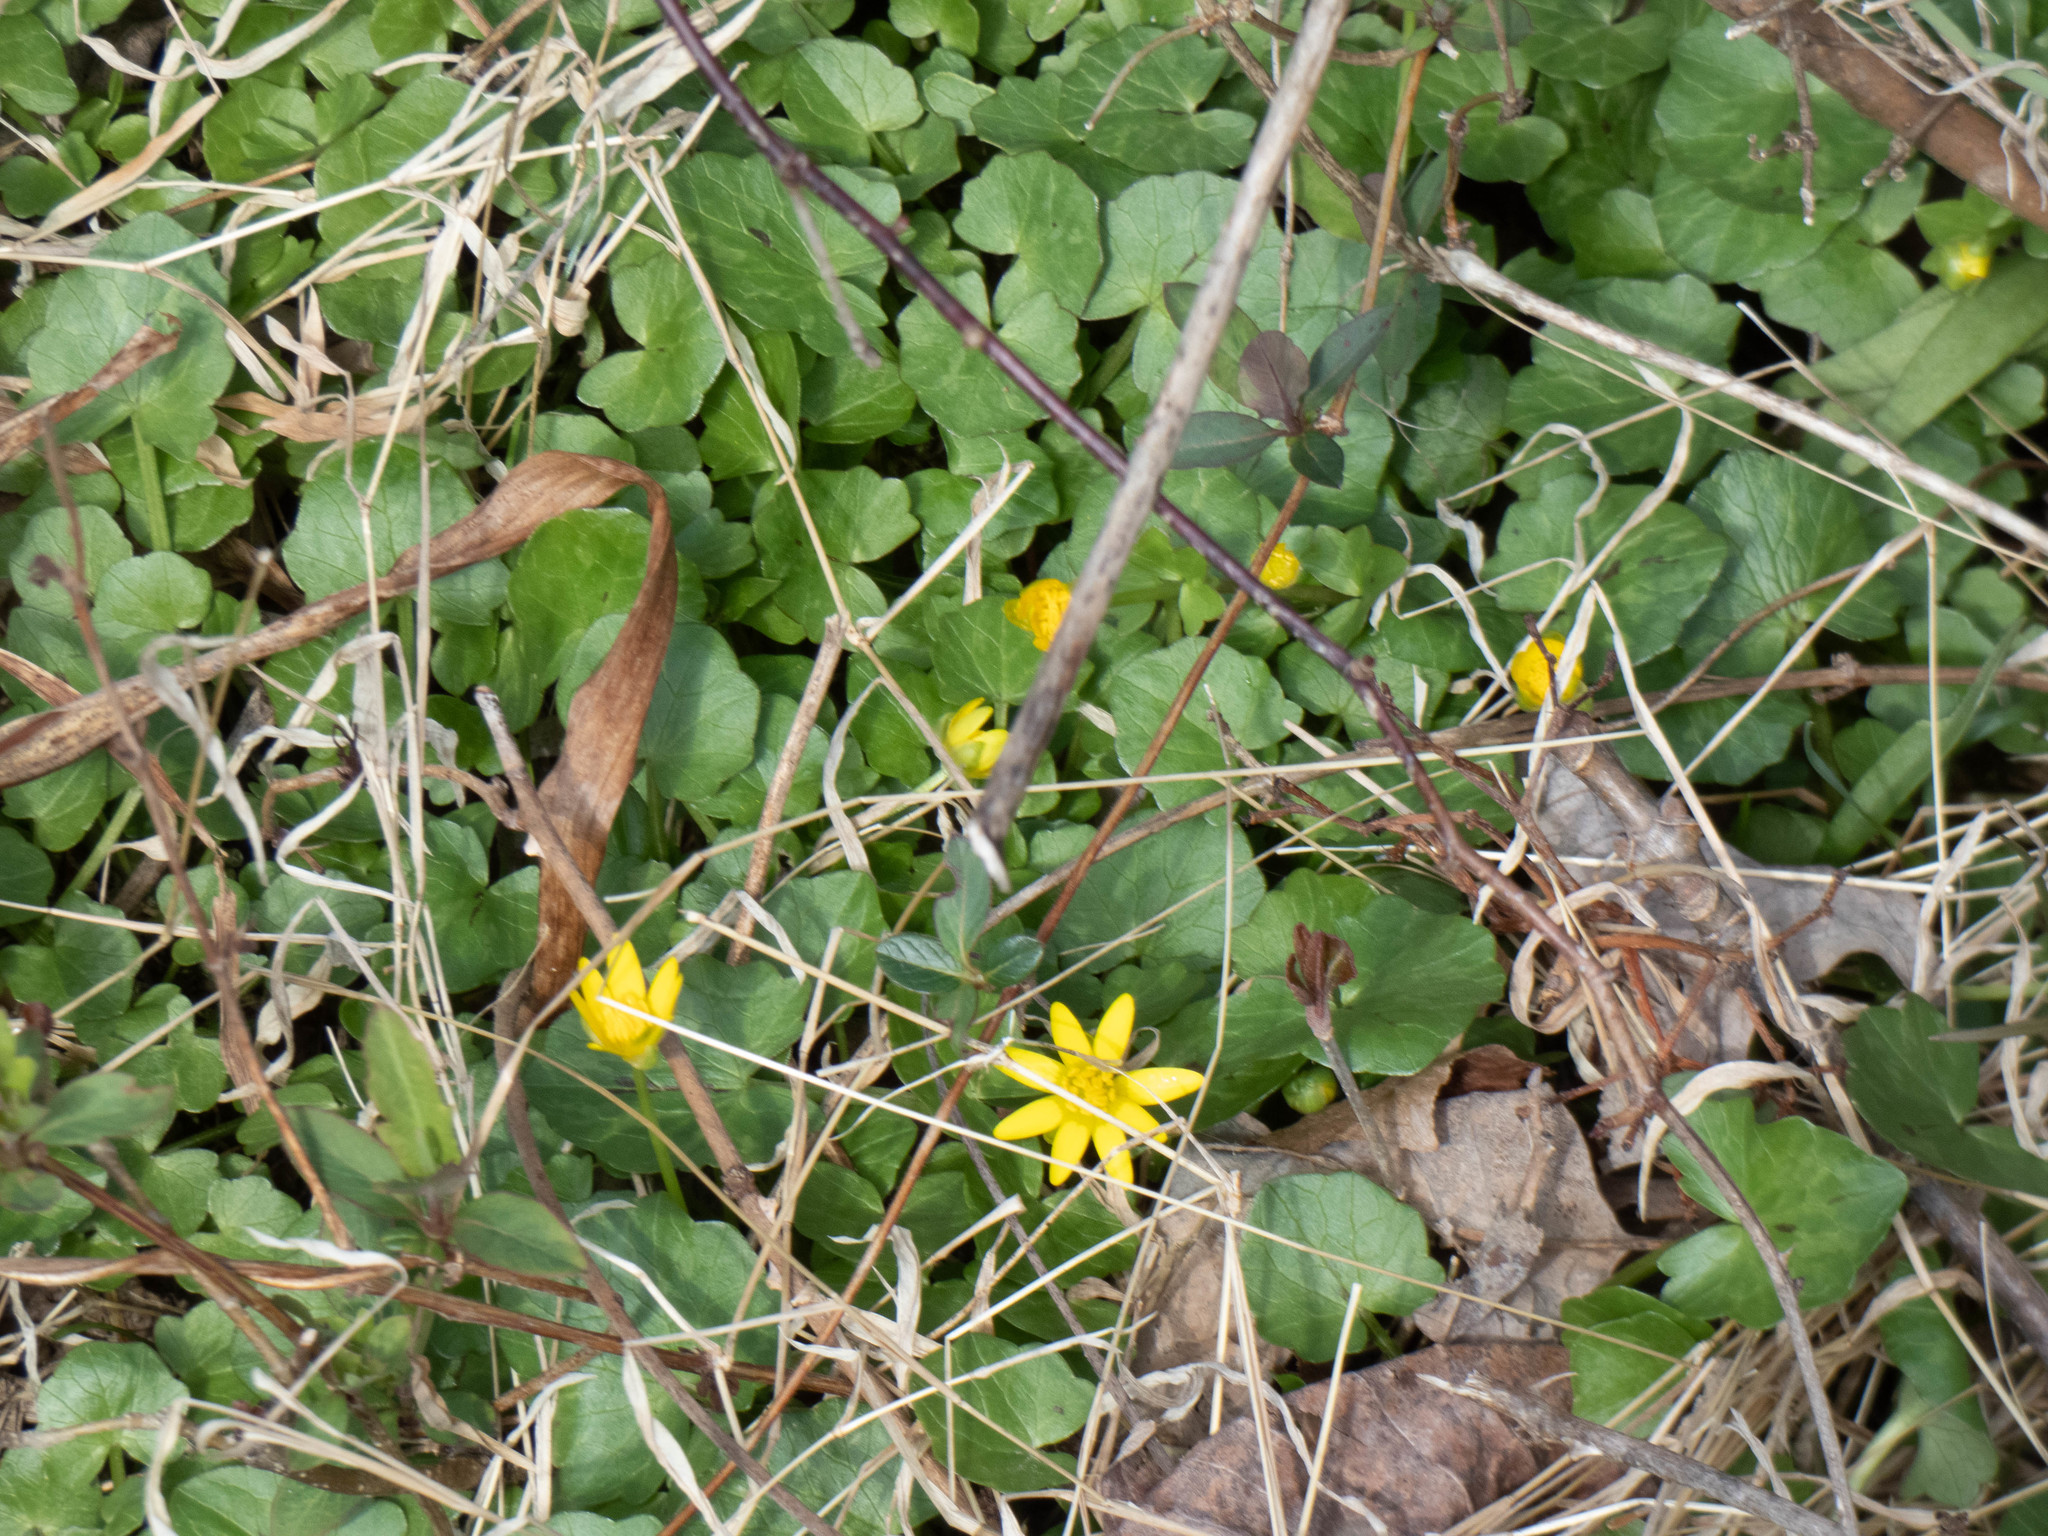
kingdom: Plantae
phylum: Tracheophyta
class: Magnoliopsida
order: Ranunculales
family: Ranunculaceae
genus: Ficaria
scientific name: Ficaria verna
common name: Lesser celandine
